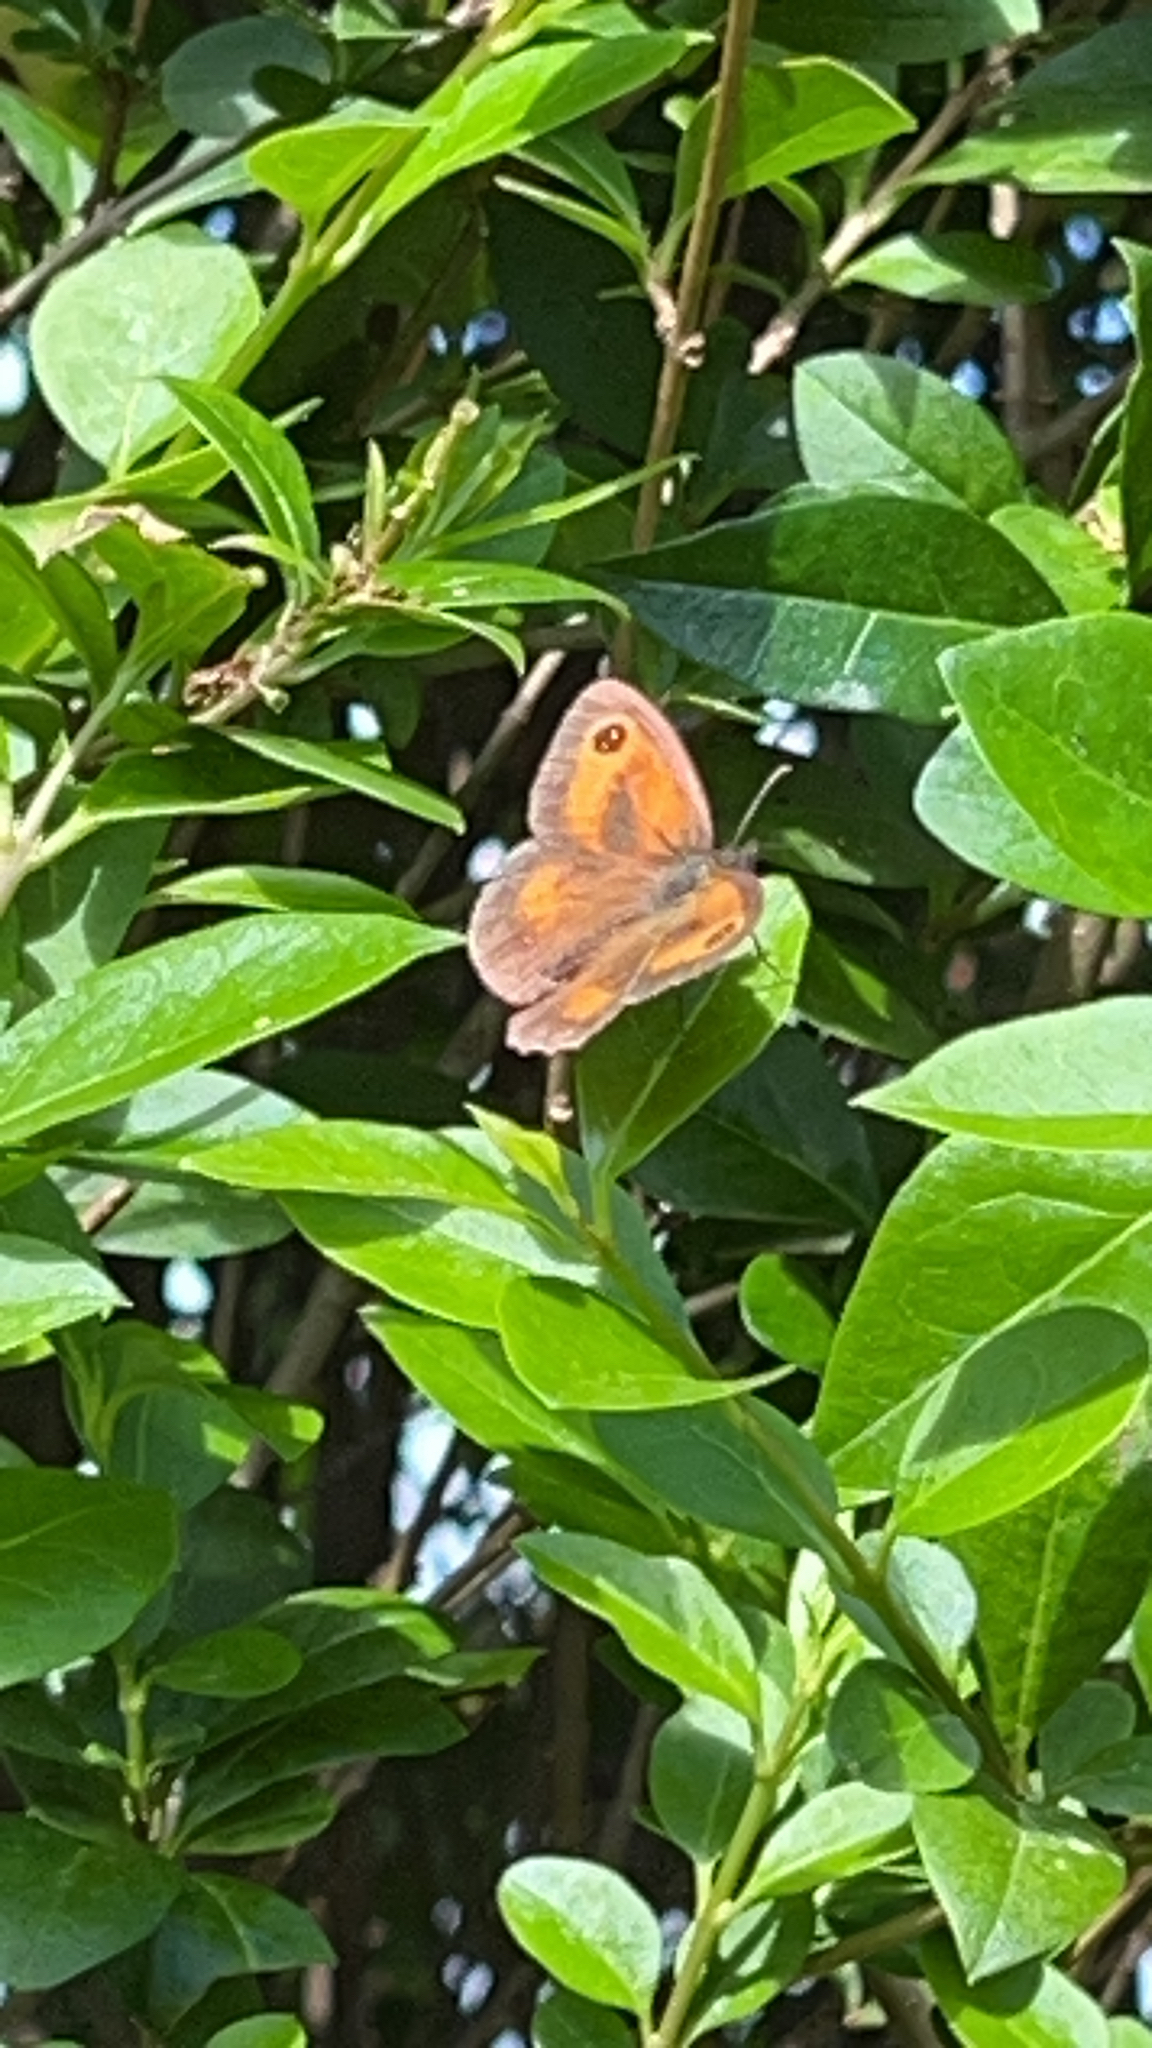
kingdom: Animalia
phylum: Arthropoda
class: Insecta
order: Lepidoptera
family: Nymphalidae
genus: Pyronia
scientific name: Pyronia tithonus
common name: Gatekeeper
